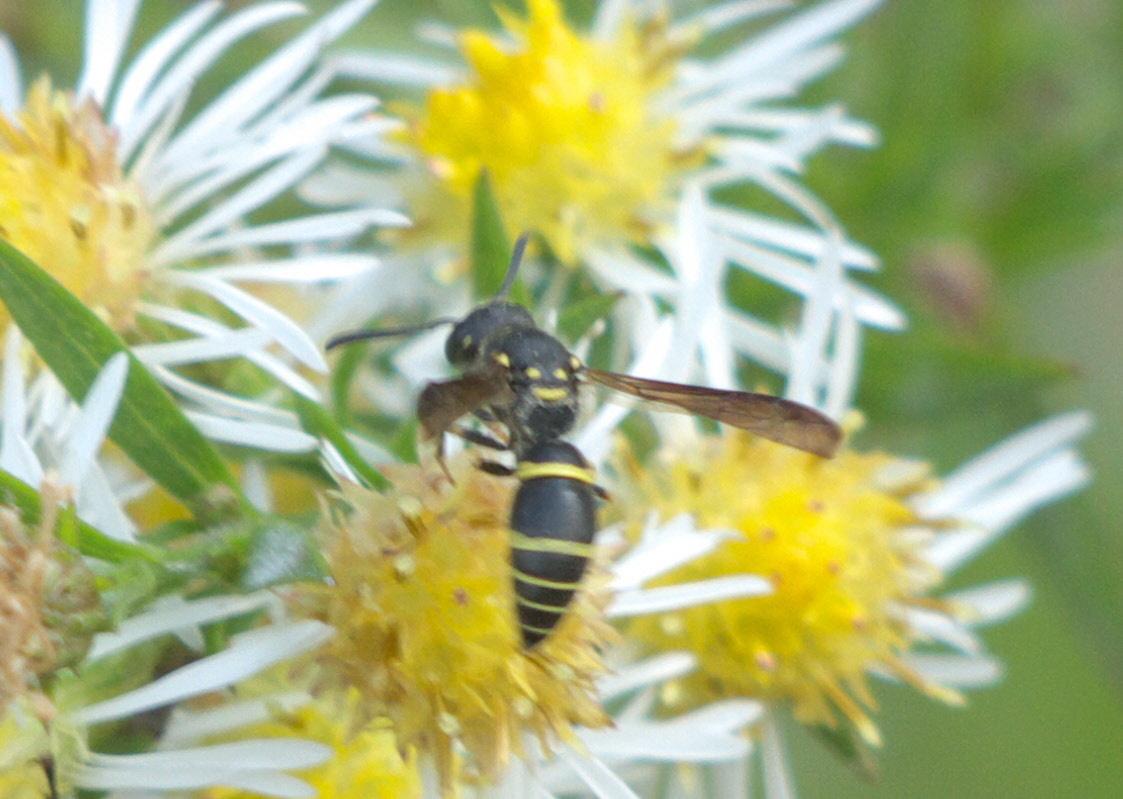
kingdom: Animalia
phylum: Arthropoda
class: Insecta
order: Hymenoptera
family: Vespidae
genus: Ancistrocerus
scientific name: Ancistrocerus adiabatus
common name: Bramble mason wasp
